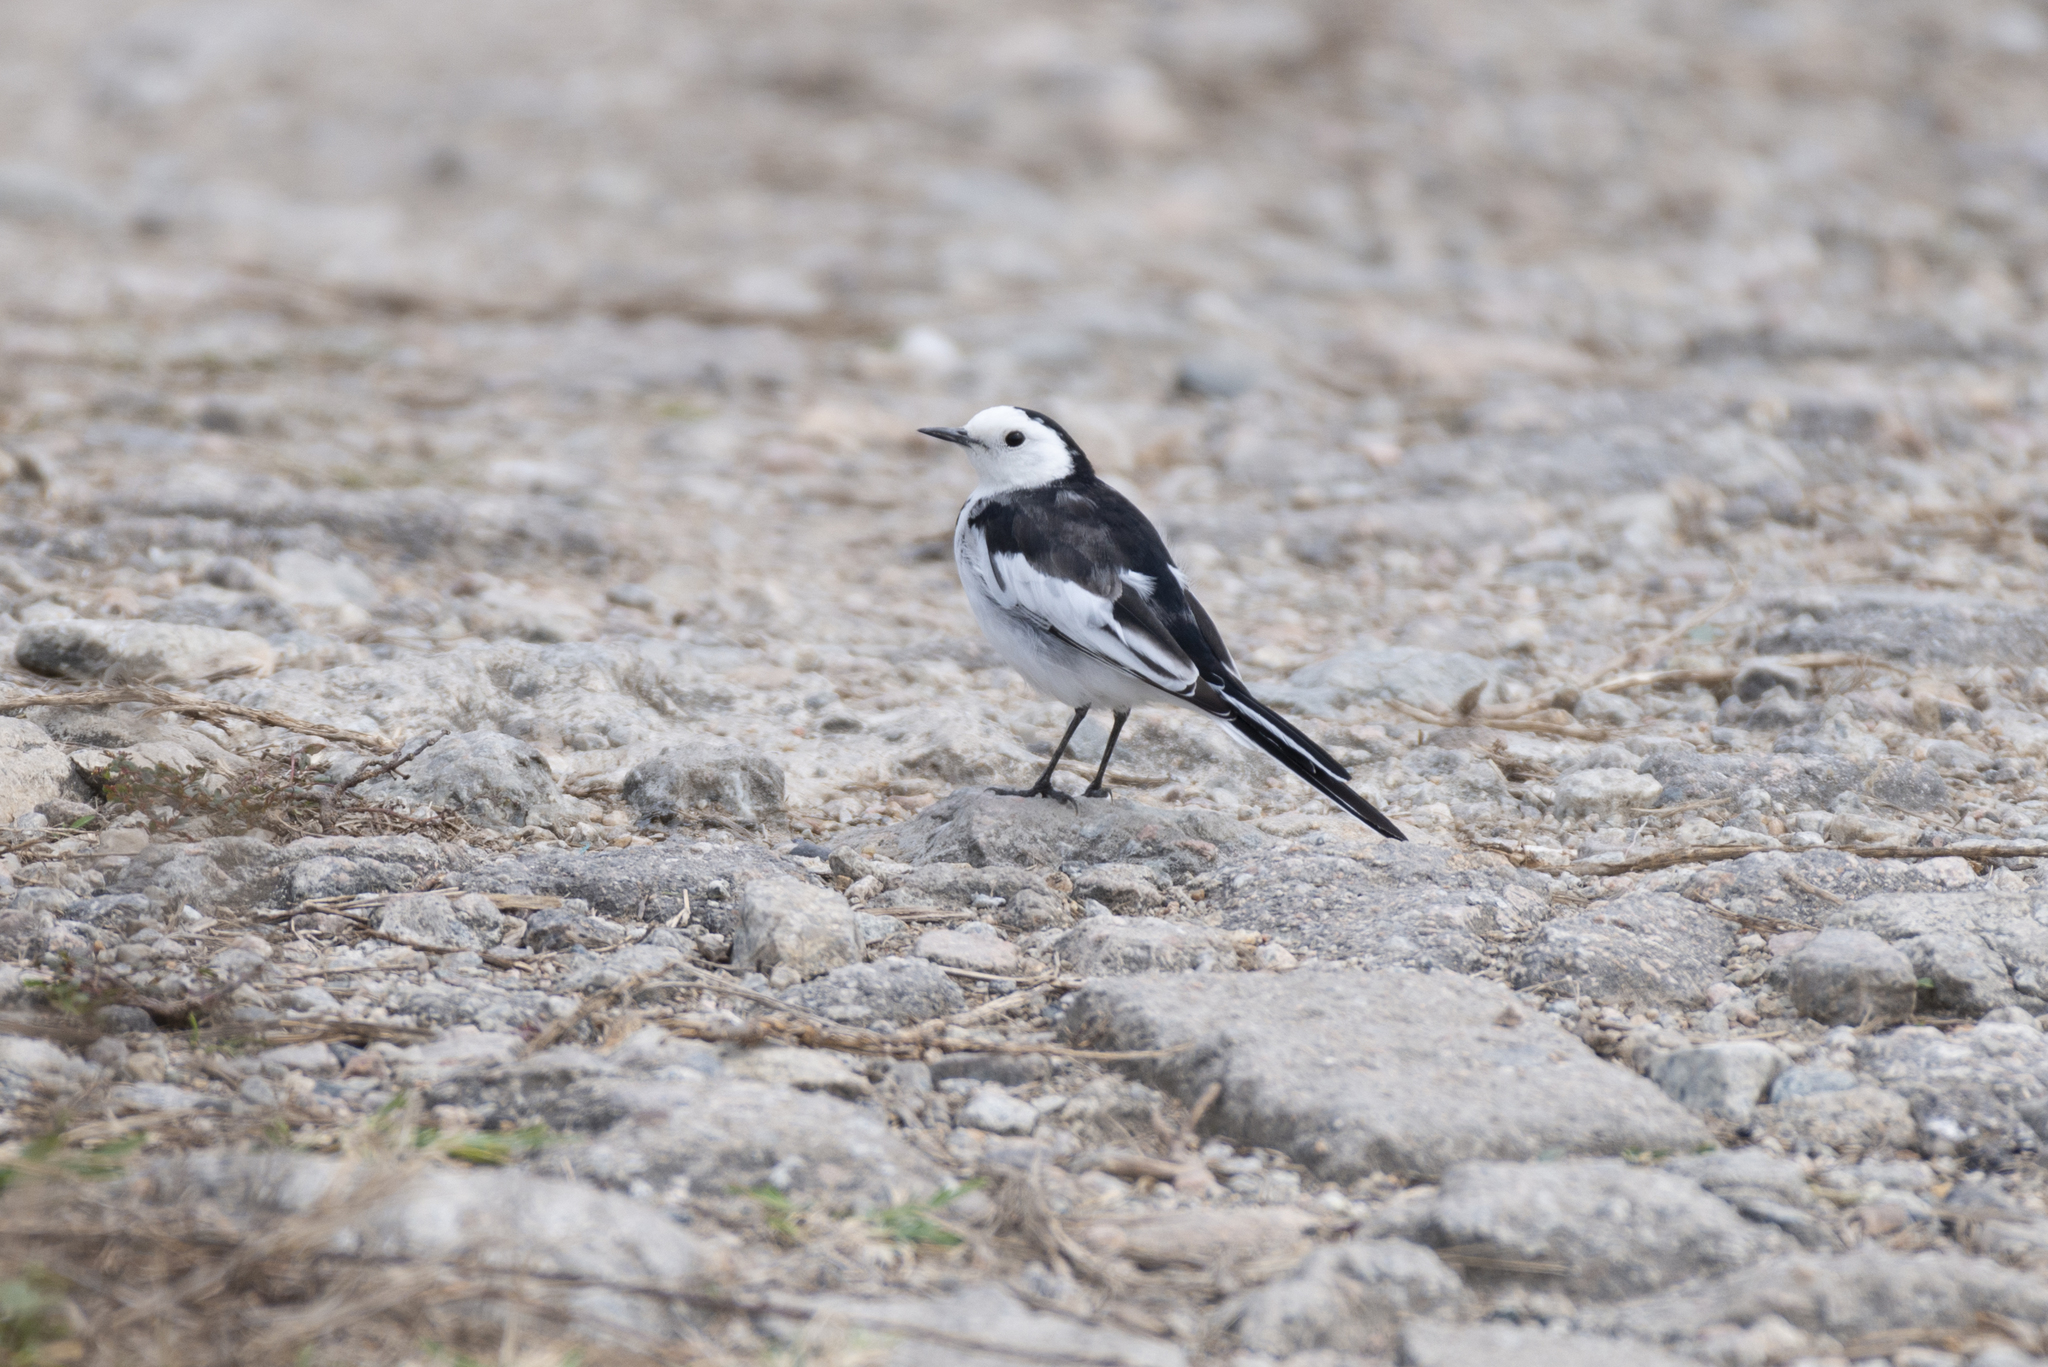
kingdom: Animalia
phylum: Chordata
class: Aves
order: Passeriformes
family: Motacillidae
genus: Motacilla
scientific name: Motacilla alba
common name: White wagtail
